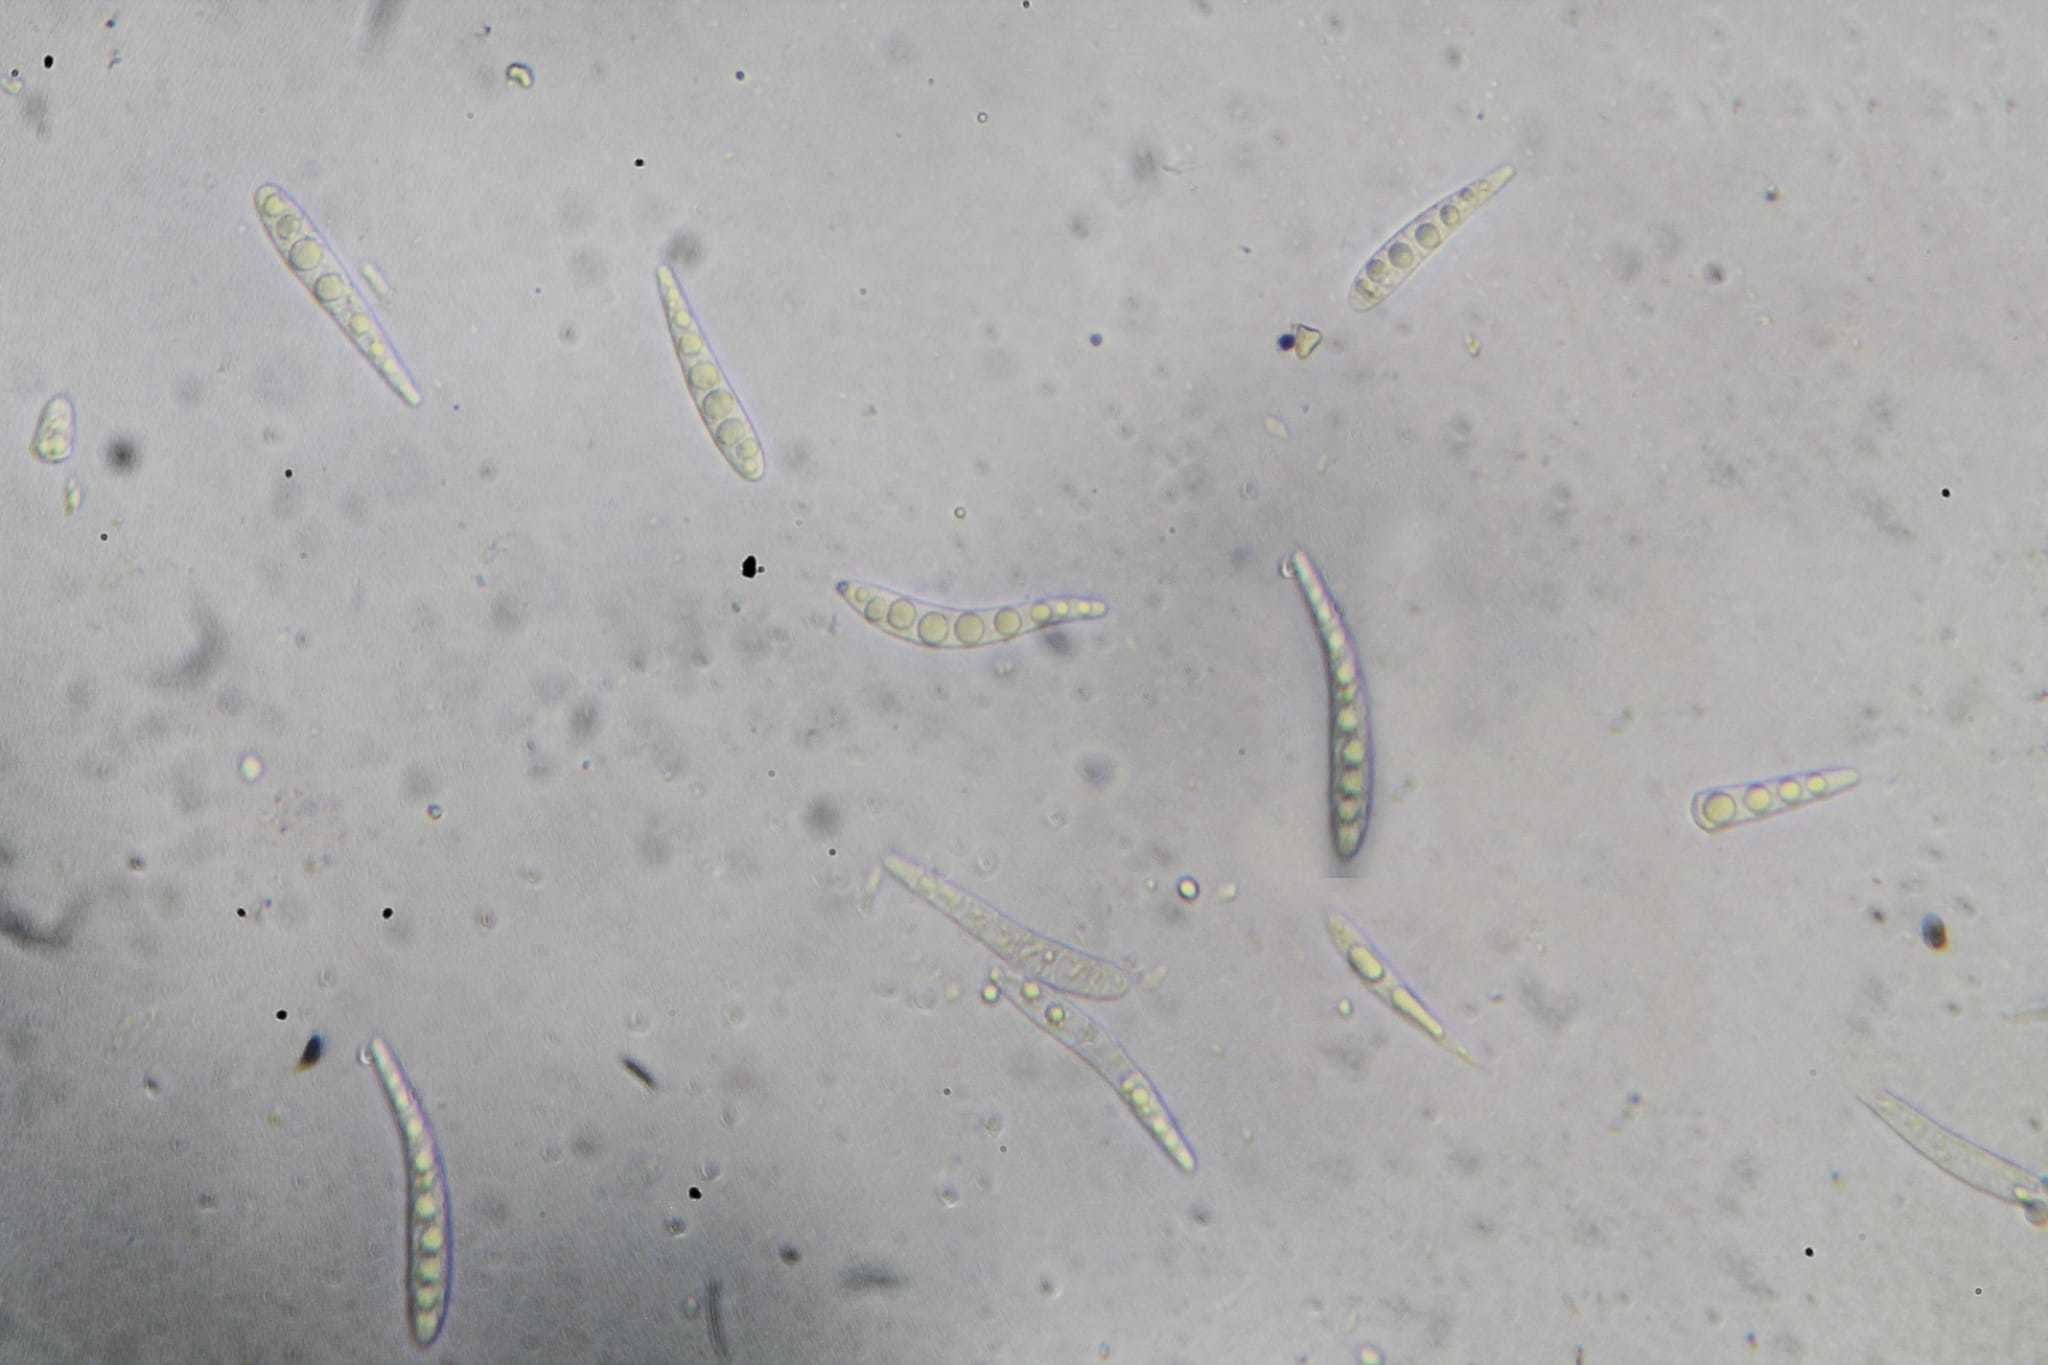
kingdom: Fungi
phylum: Ascomycota
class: Dothideomycetes
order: Patellariales
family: Patellariaceae
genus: Patellaria
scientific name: Patellaria atrata
